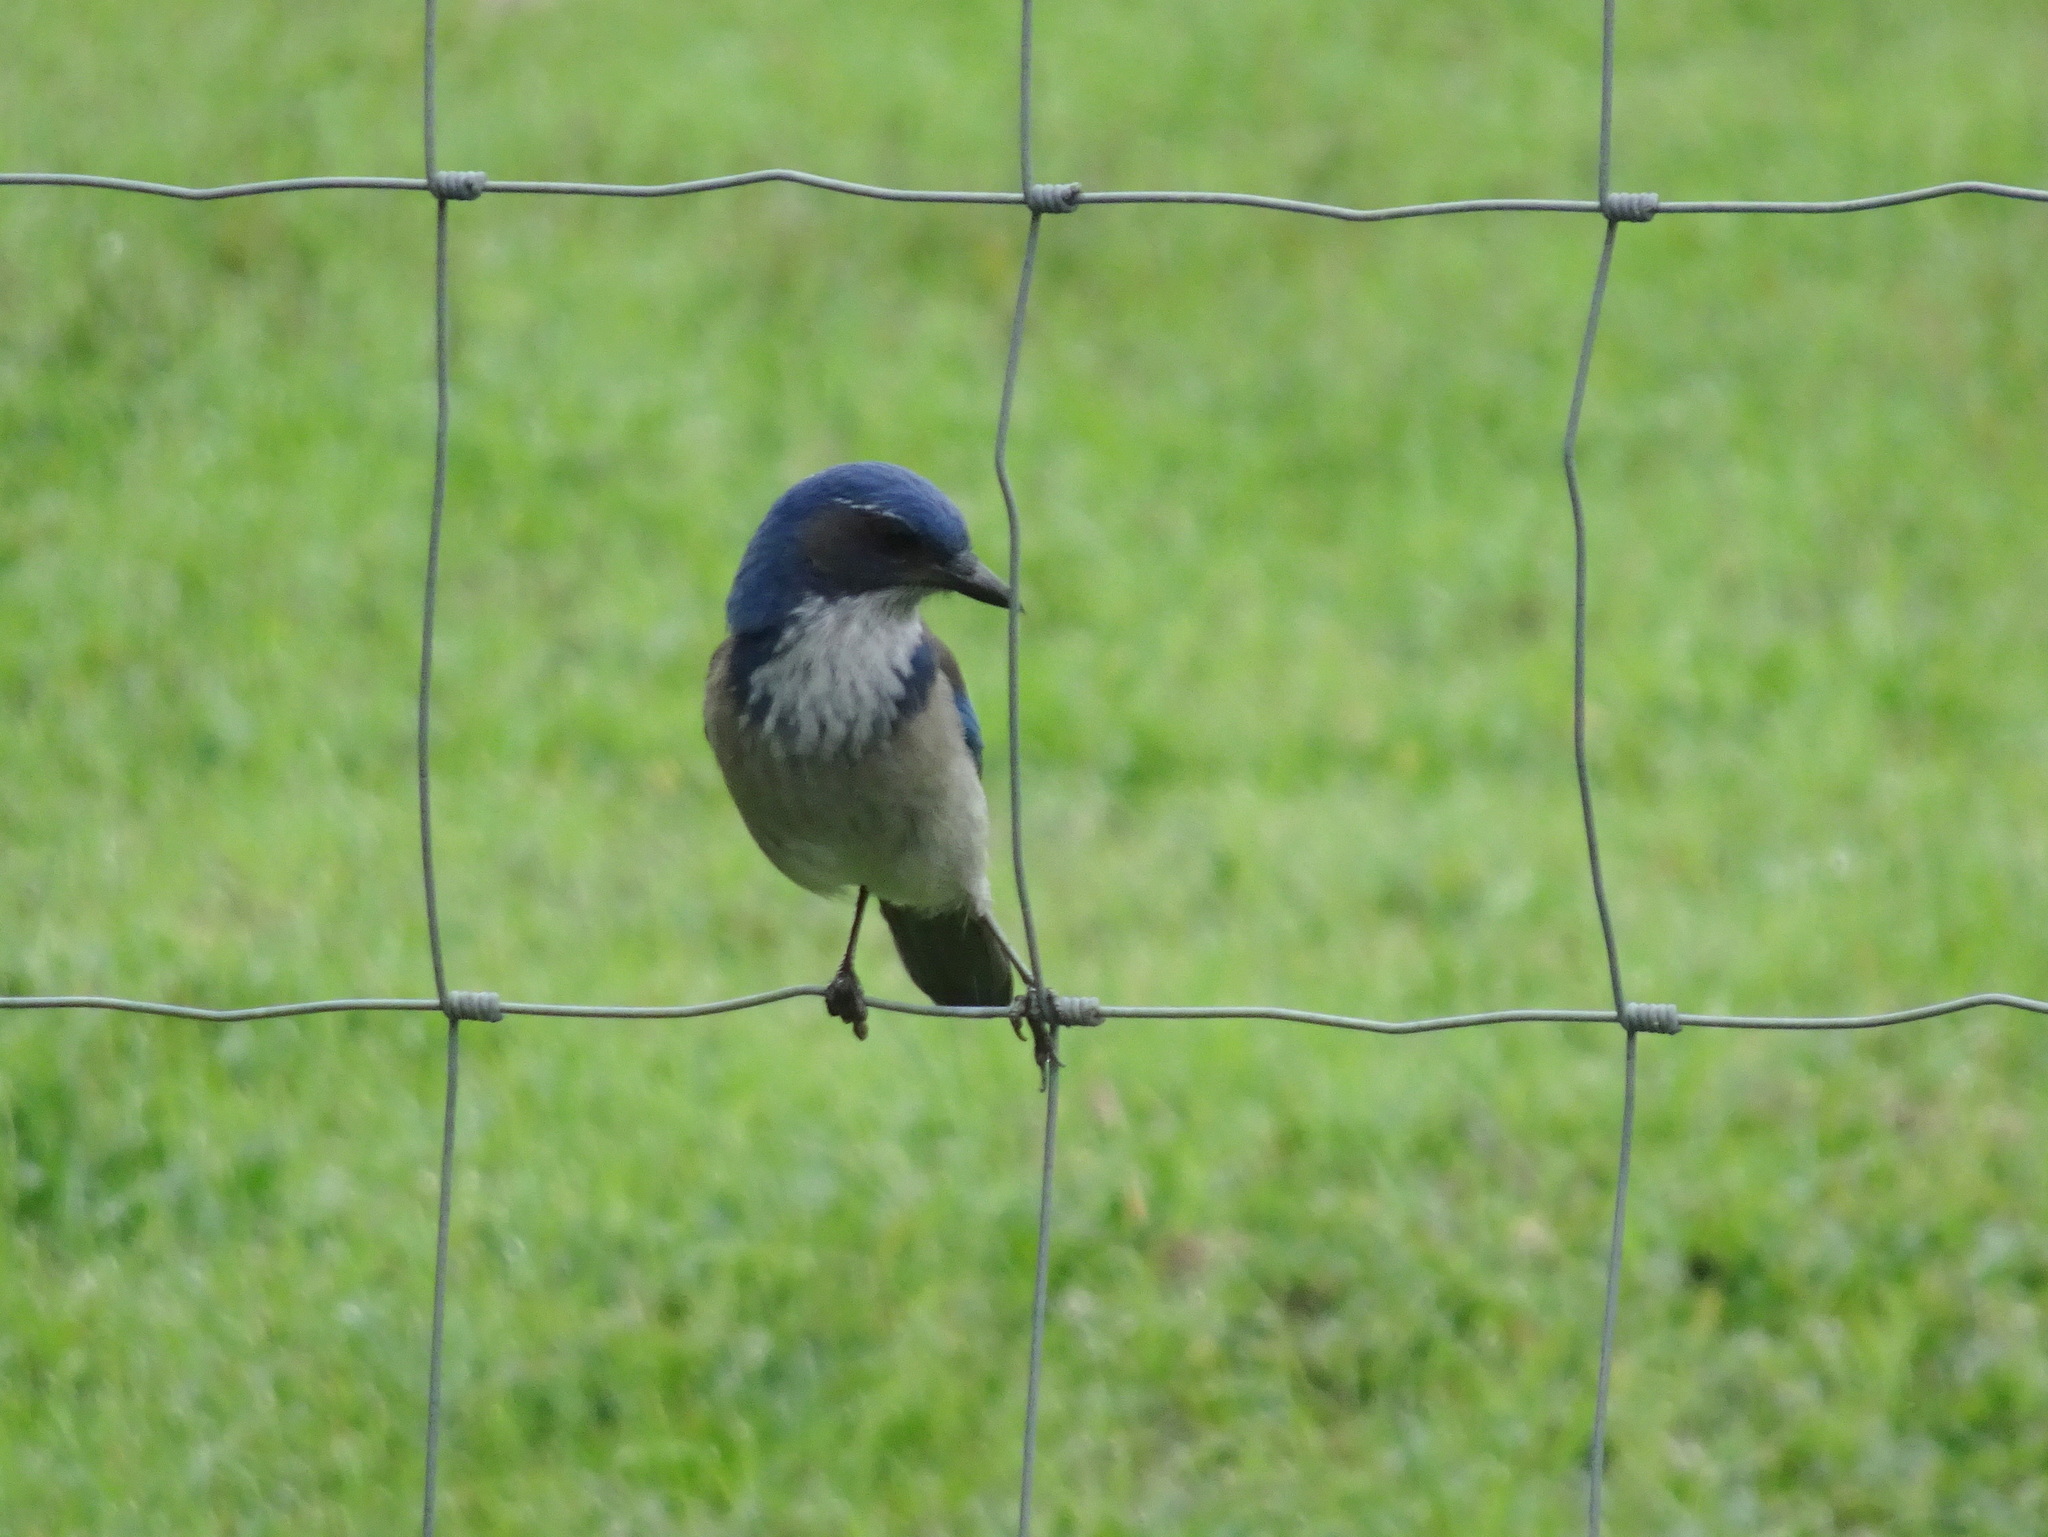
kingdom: Animalia
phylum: Chordata
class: Aves
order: Passeriformes
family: Corvidae
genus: Aphelocoma
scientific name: Aphelocoma californica
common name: California scrub-jay
